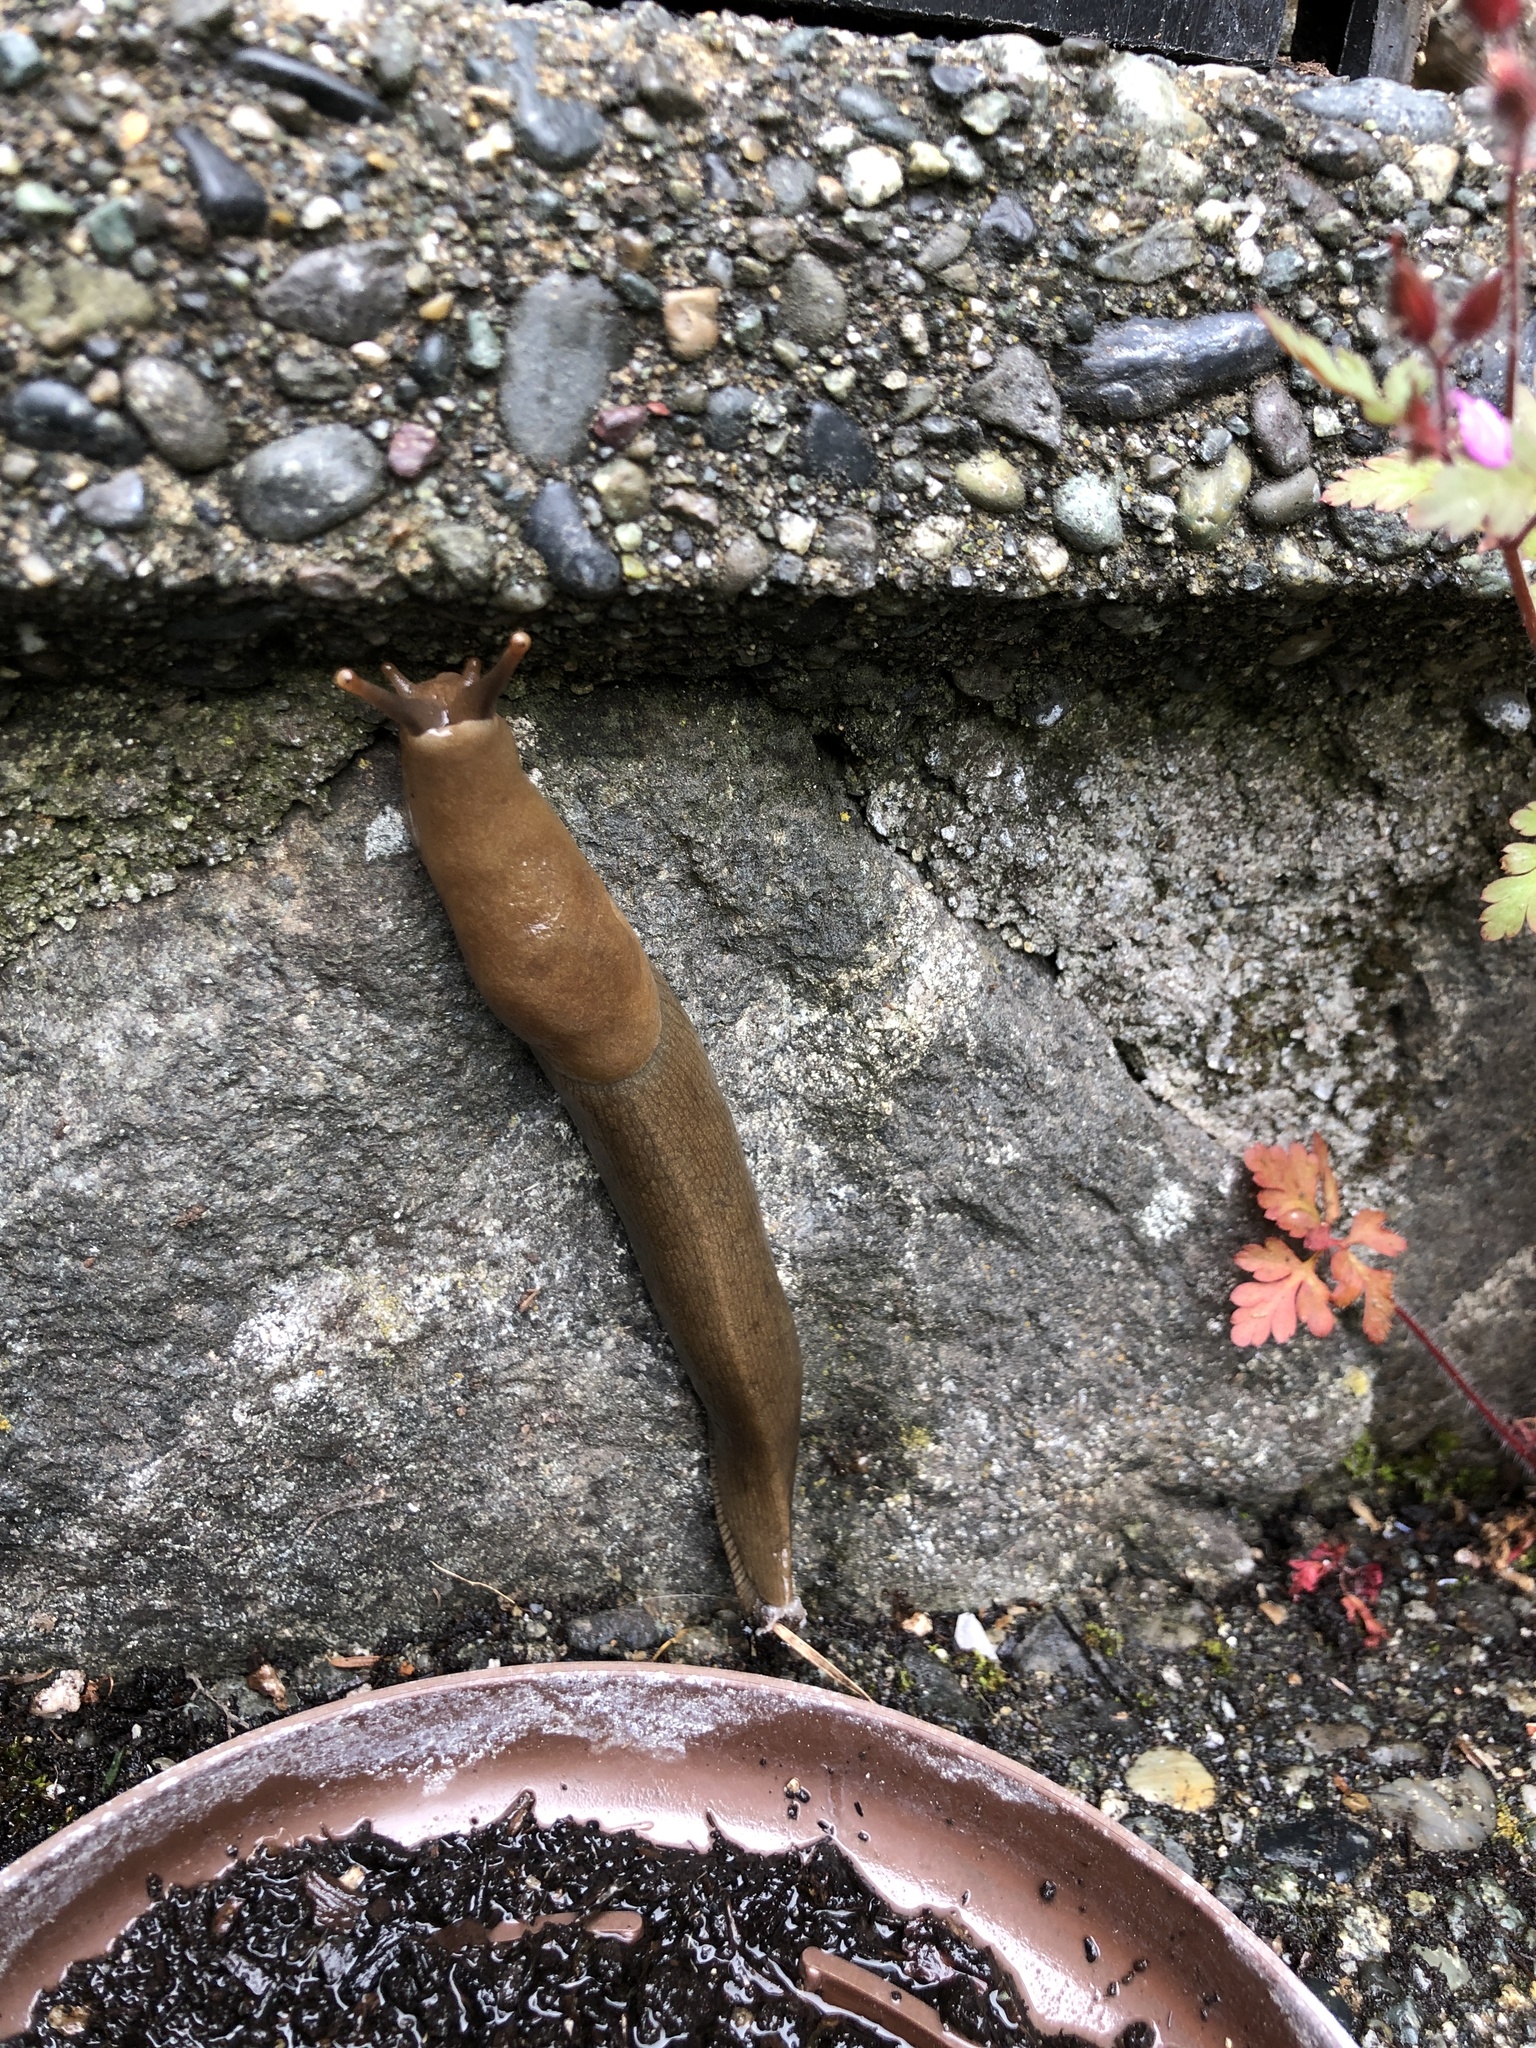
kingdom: Animalia
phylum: Mollusca
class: Gastropoda
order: Stylommatophora
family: Ariolimacidae
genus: Ariolimax
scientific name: Ariolimax columbianus
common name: Pacific banana slug
